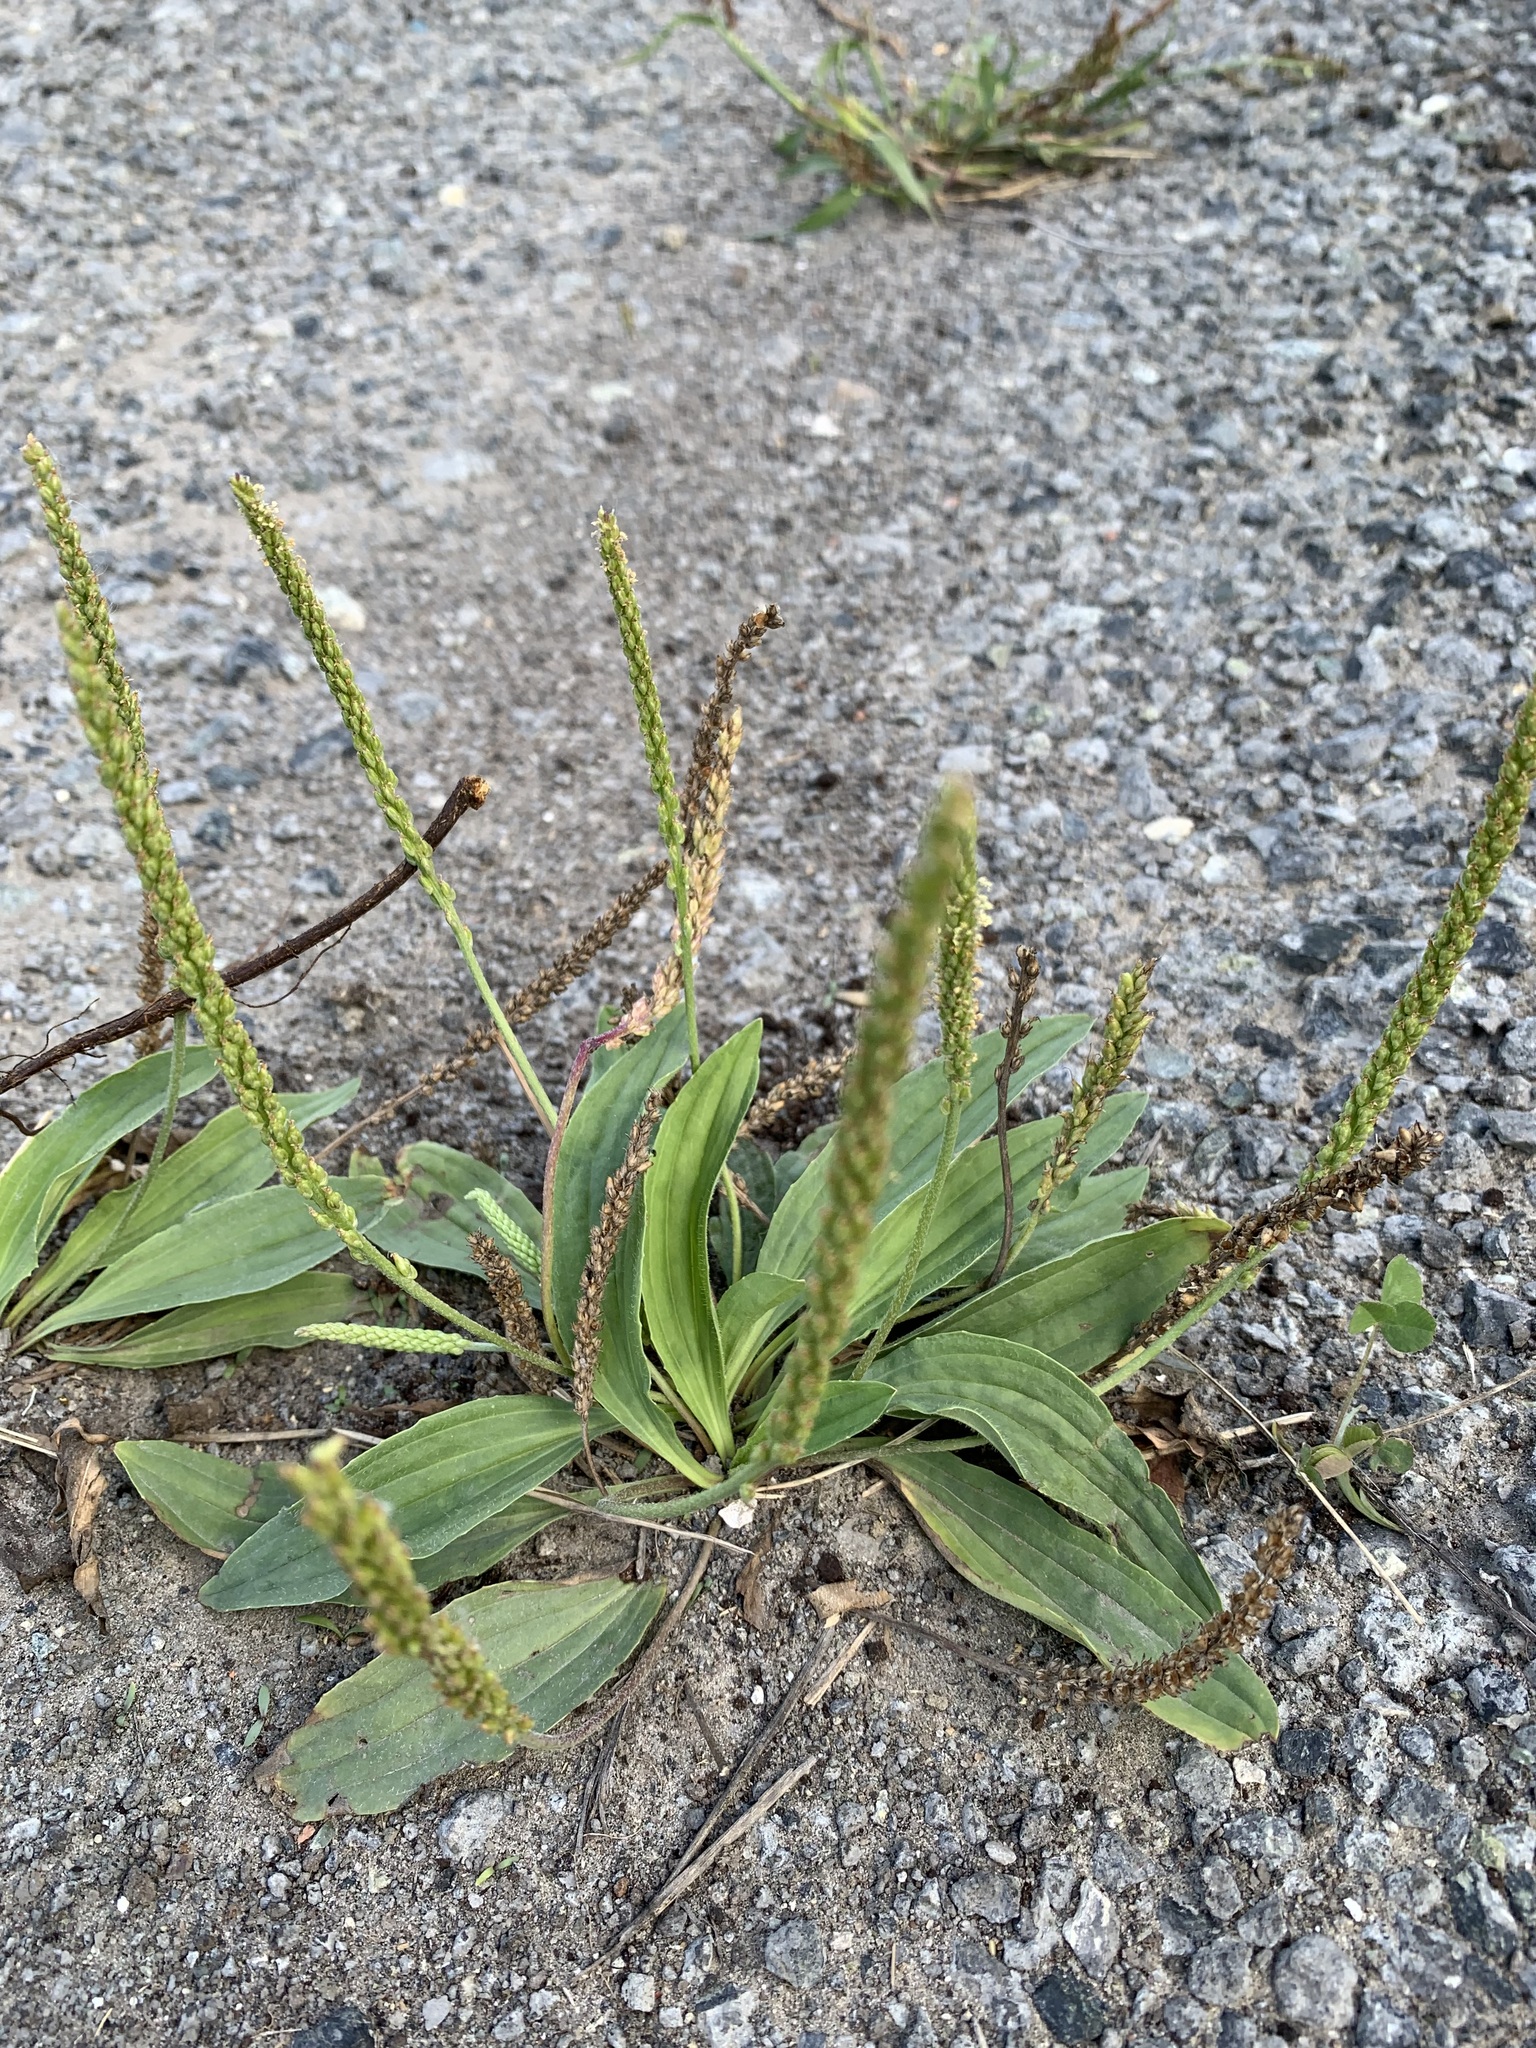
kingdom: Plantae
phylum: Tracheophyta
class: Magnoliopsida
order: Lamiales
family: Plantaginaceae
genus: Plantago
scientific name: Plantago depressa
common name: Depressed plantain
